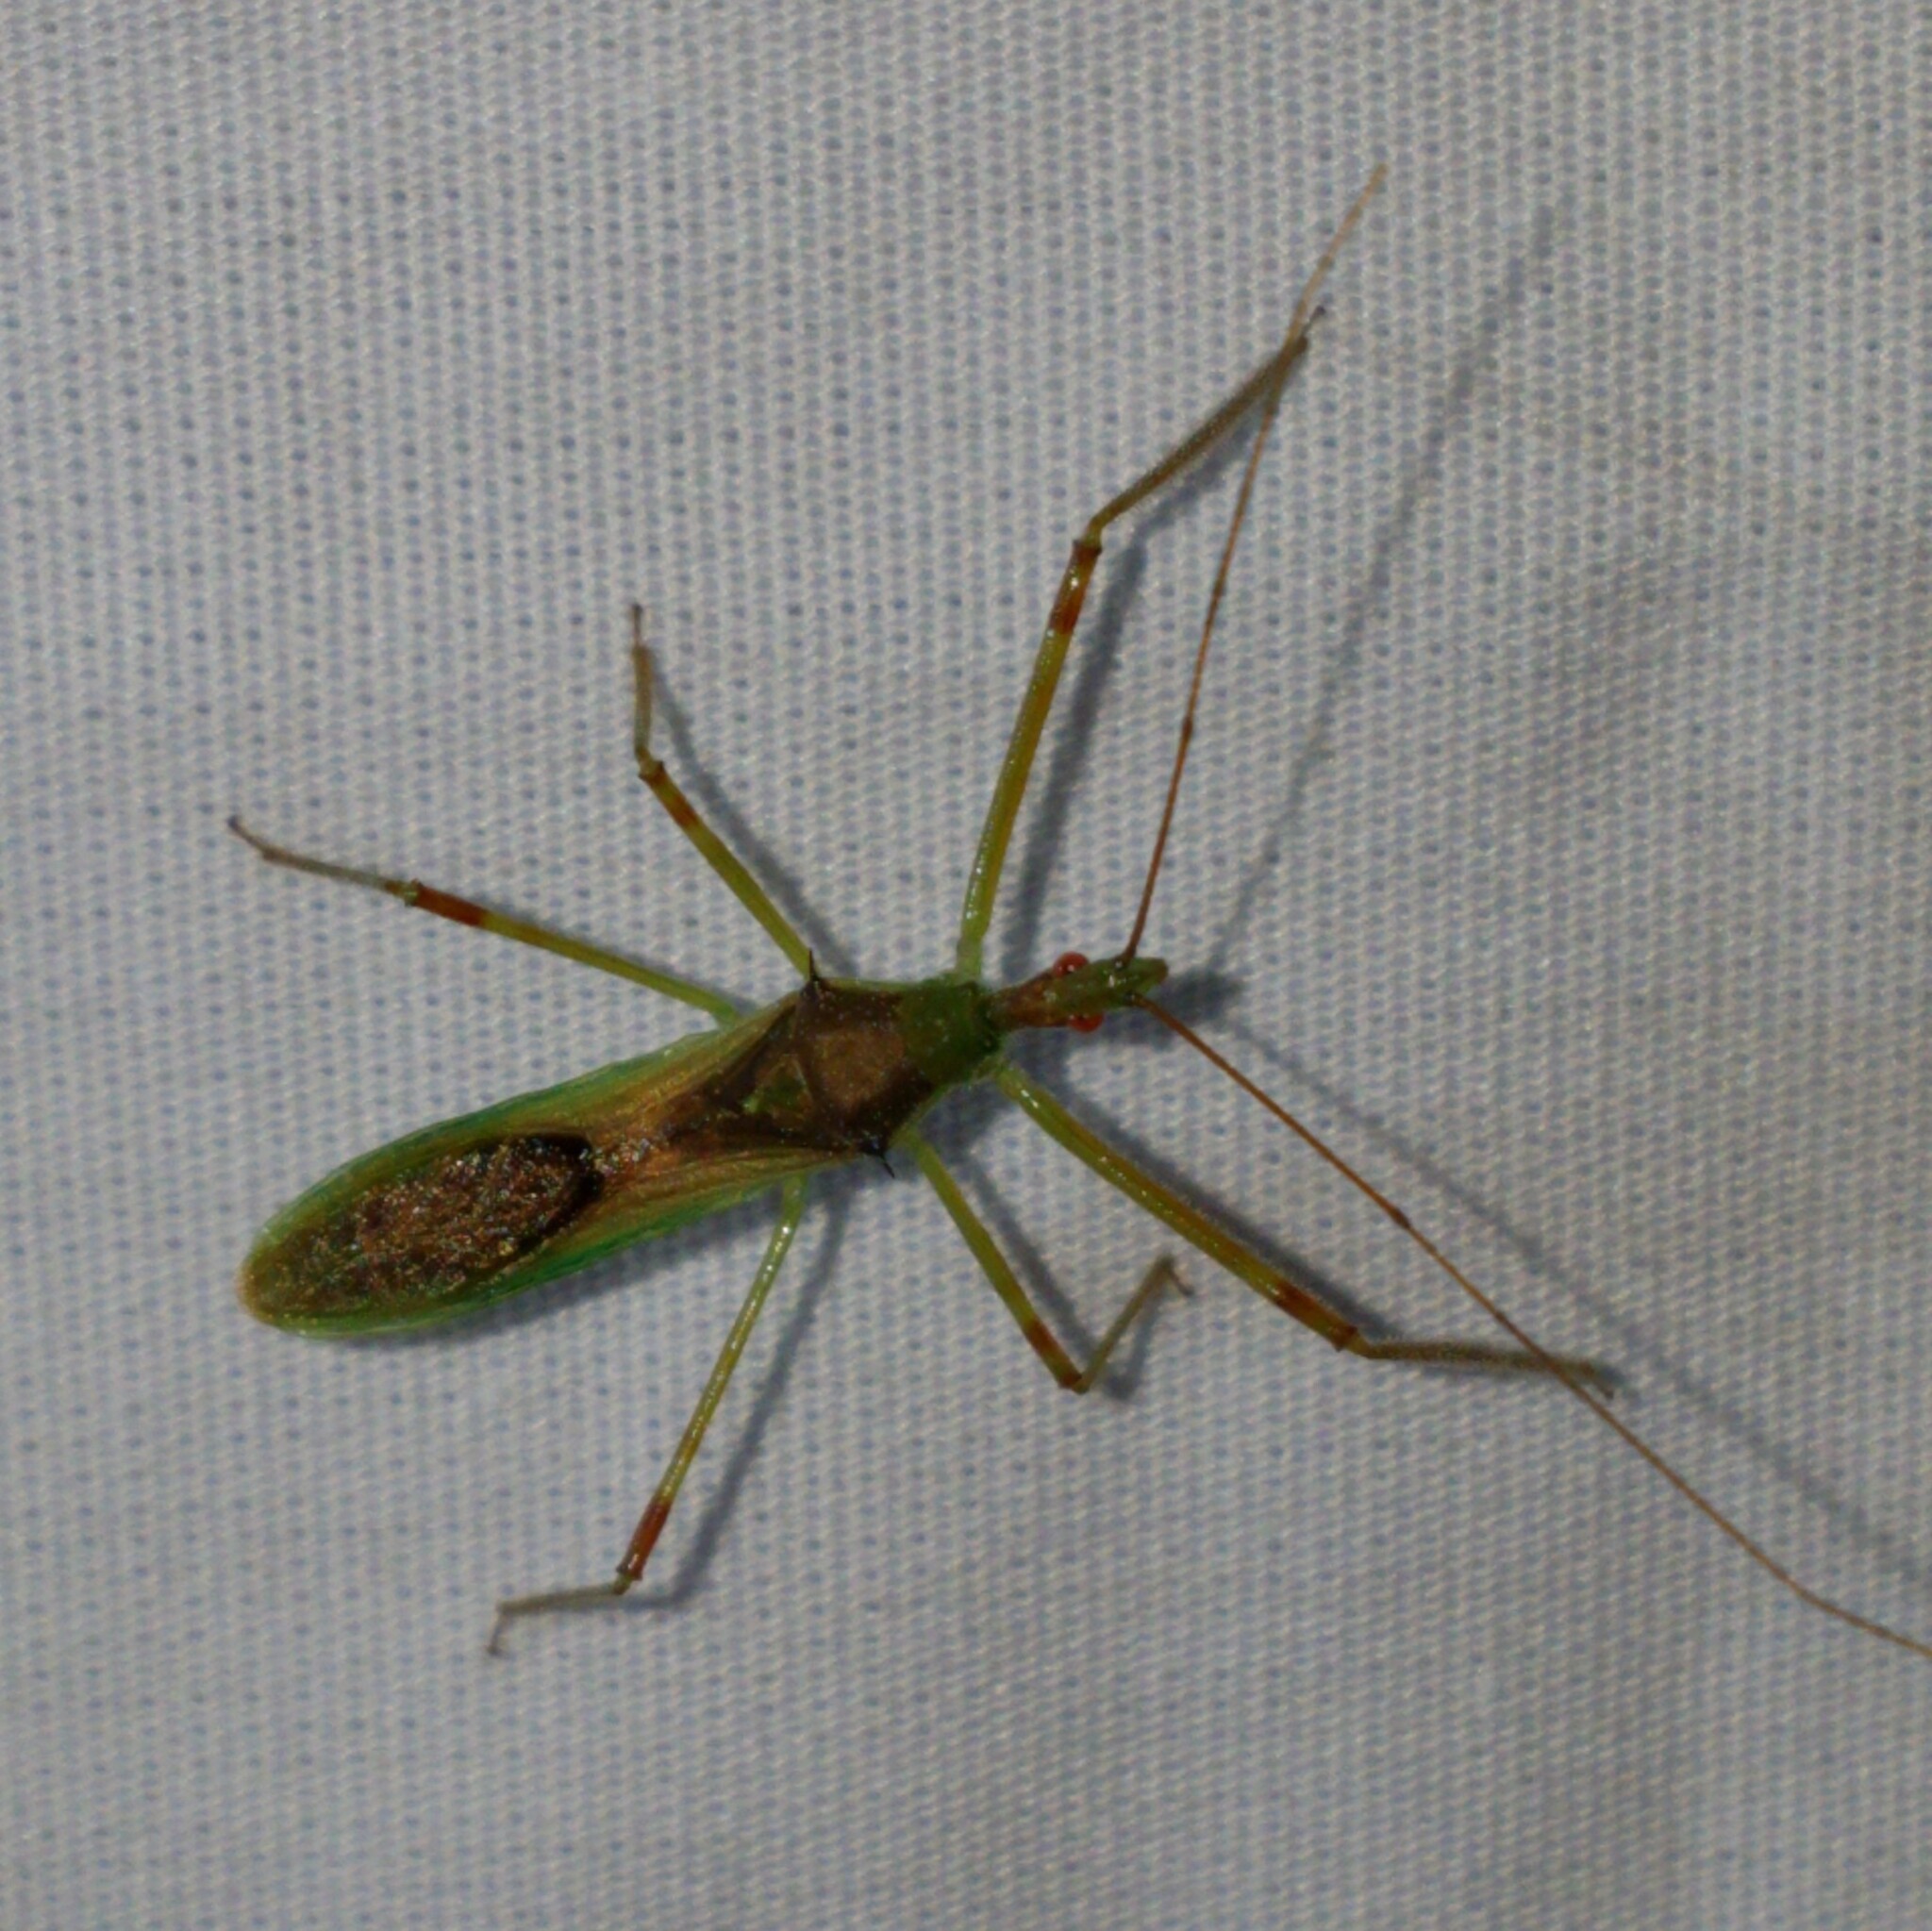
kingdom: Animalia
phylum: Arthropoda
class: Insecta
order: Hemiptera
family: Reduviidae
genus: Zelus
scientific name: Zelus luridus
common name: Pale green assassin bug
